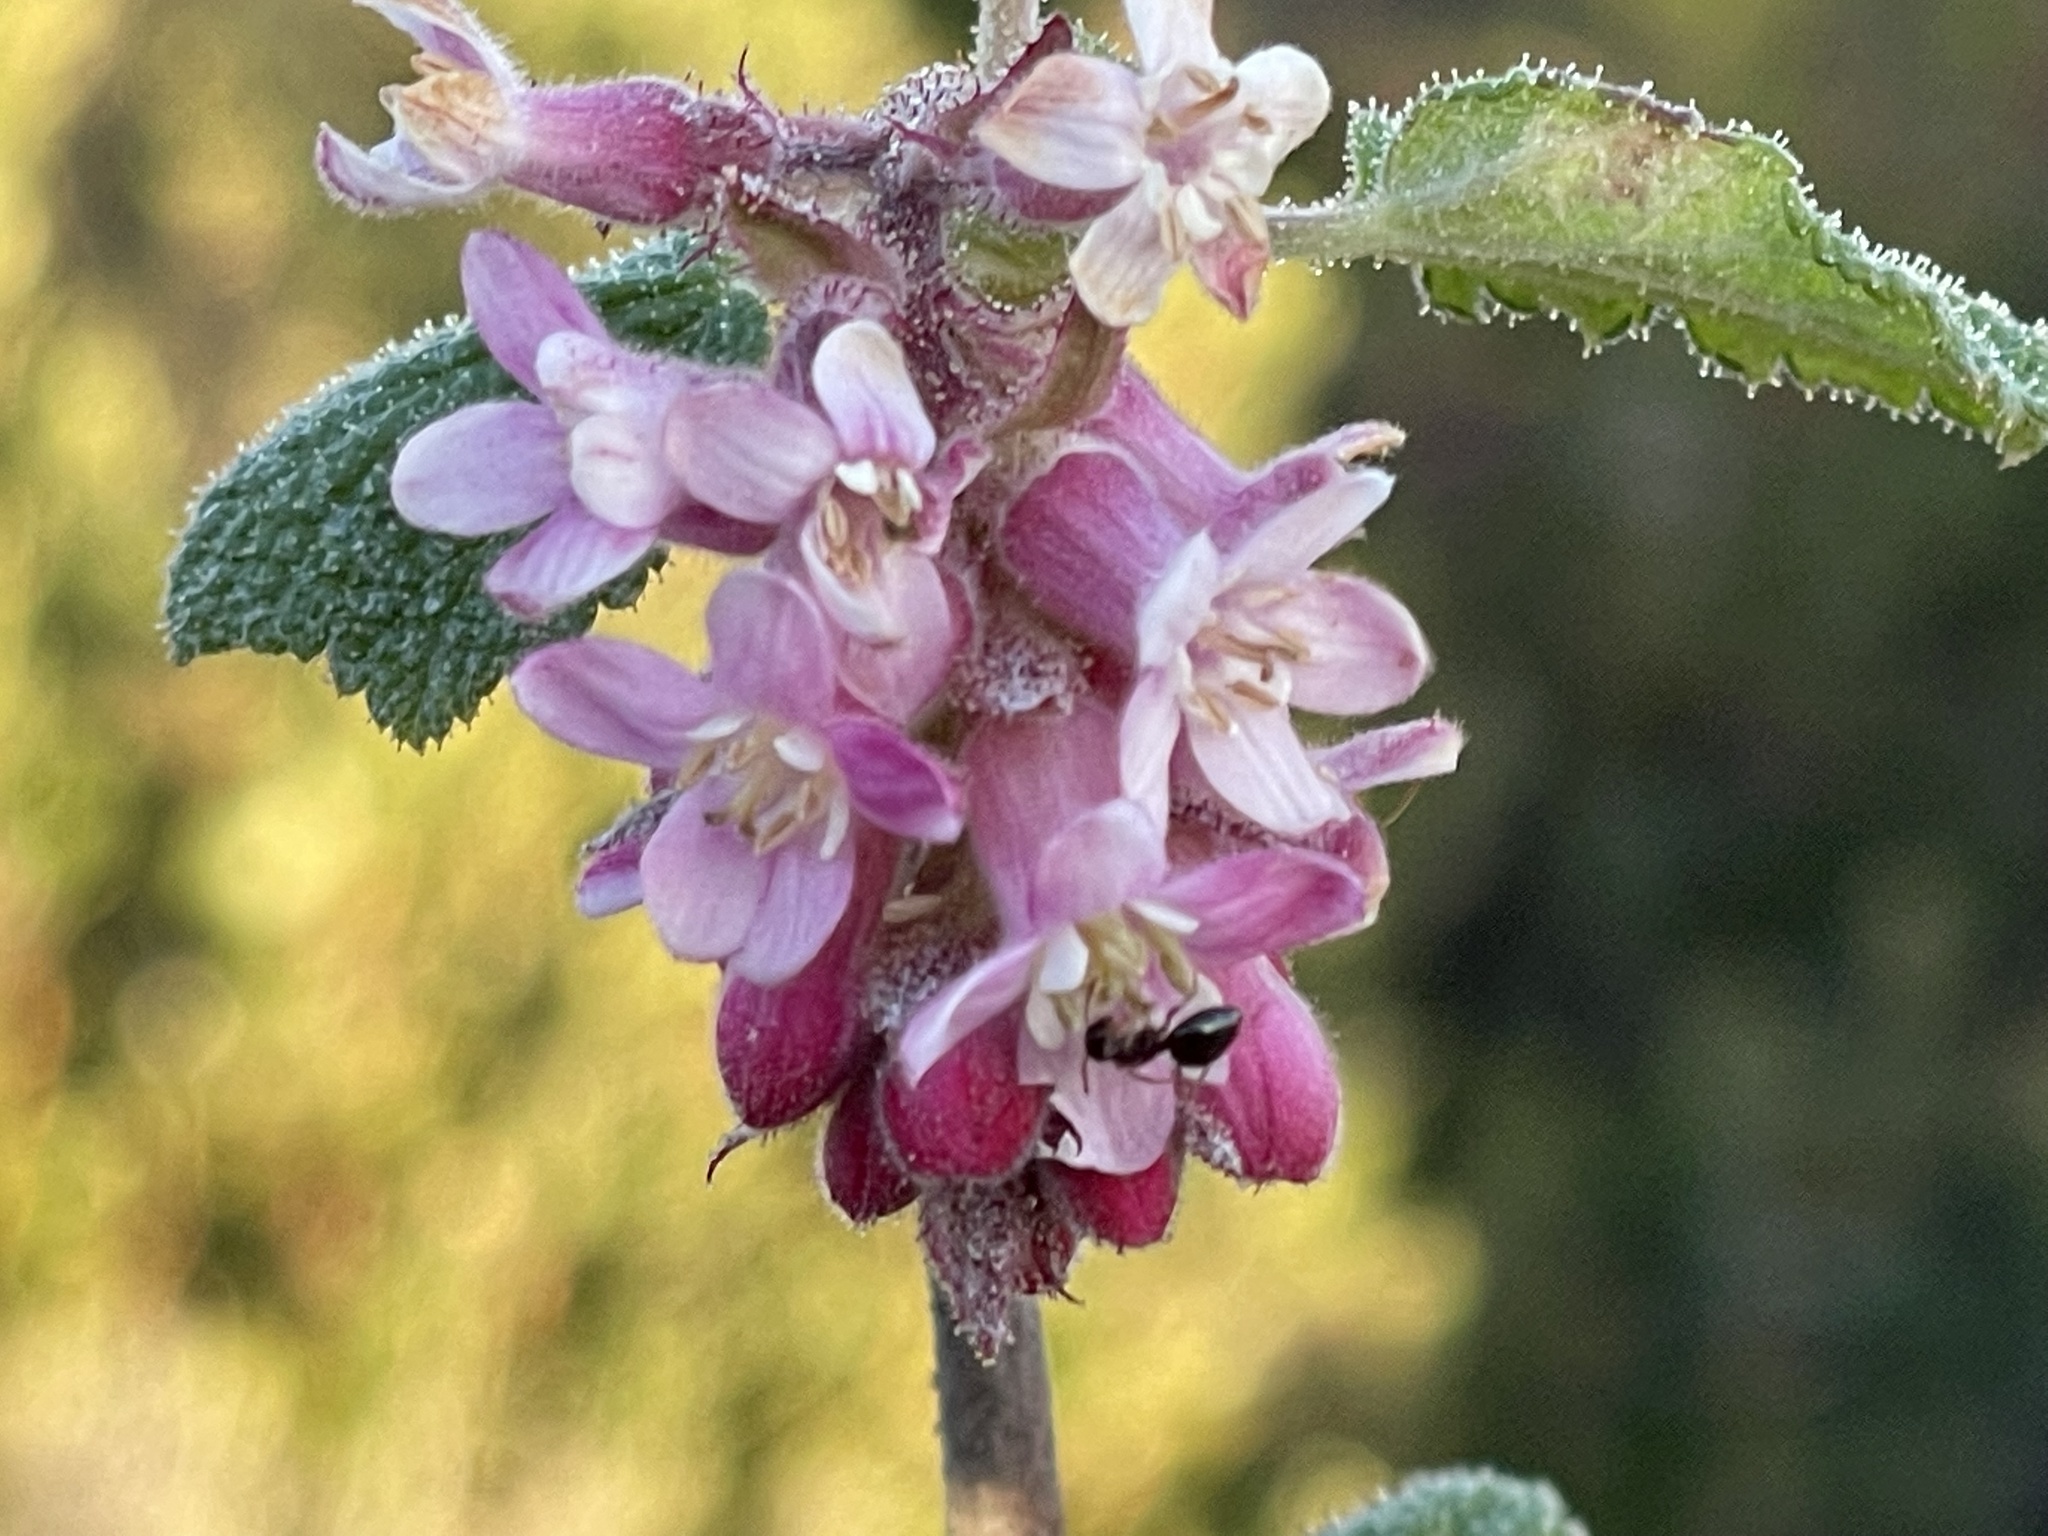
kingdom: Plantae
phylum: Tracheophyta
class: Magnoliopsida
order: Saxifragales
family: Grossulariaceae
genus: Ribes
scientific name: Ribes malvaceum
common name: Chaparral currant
